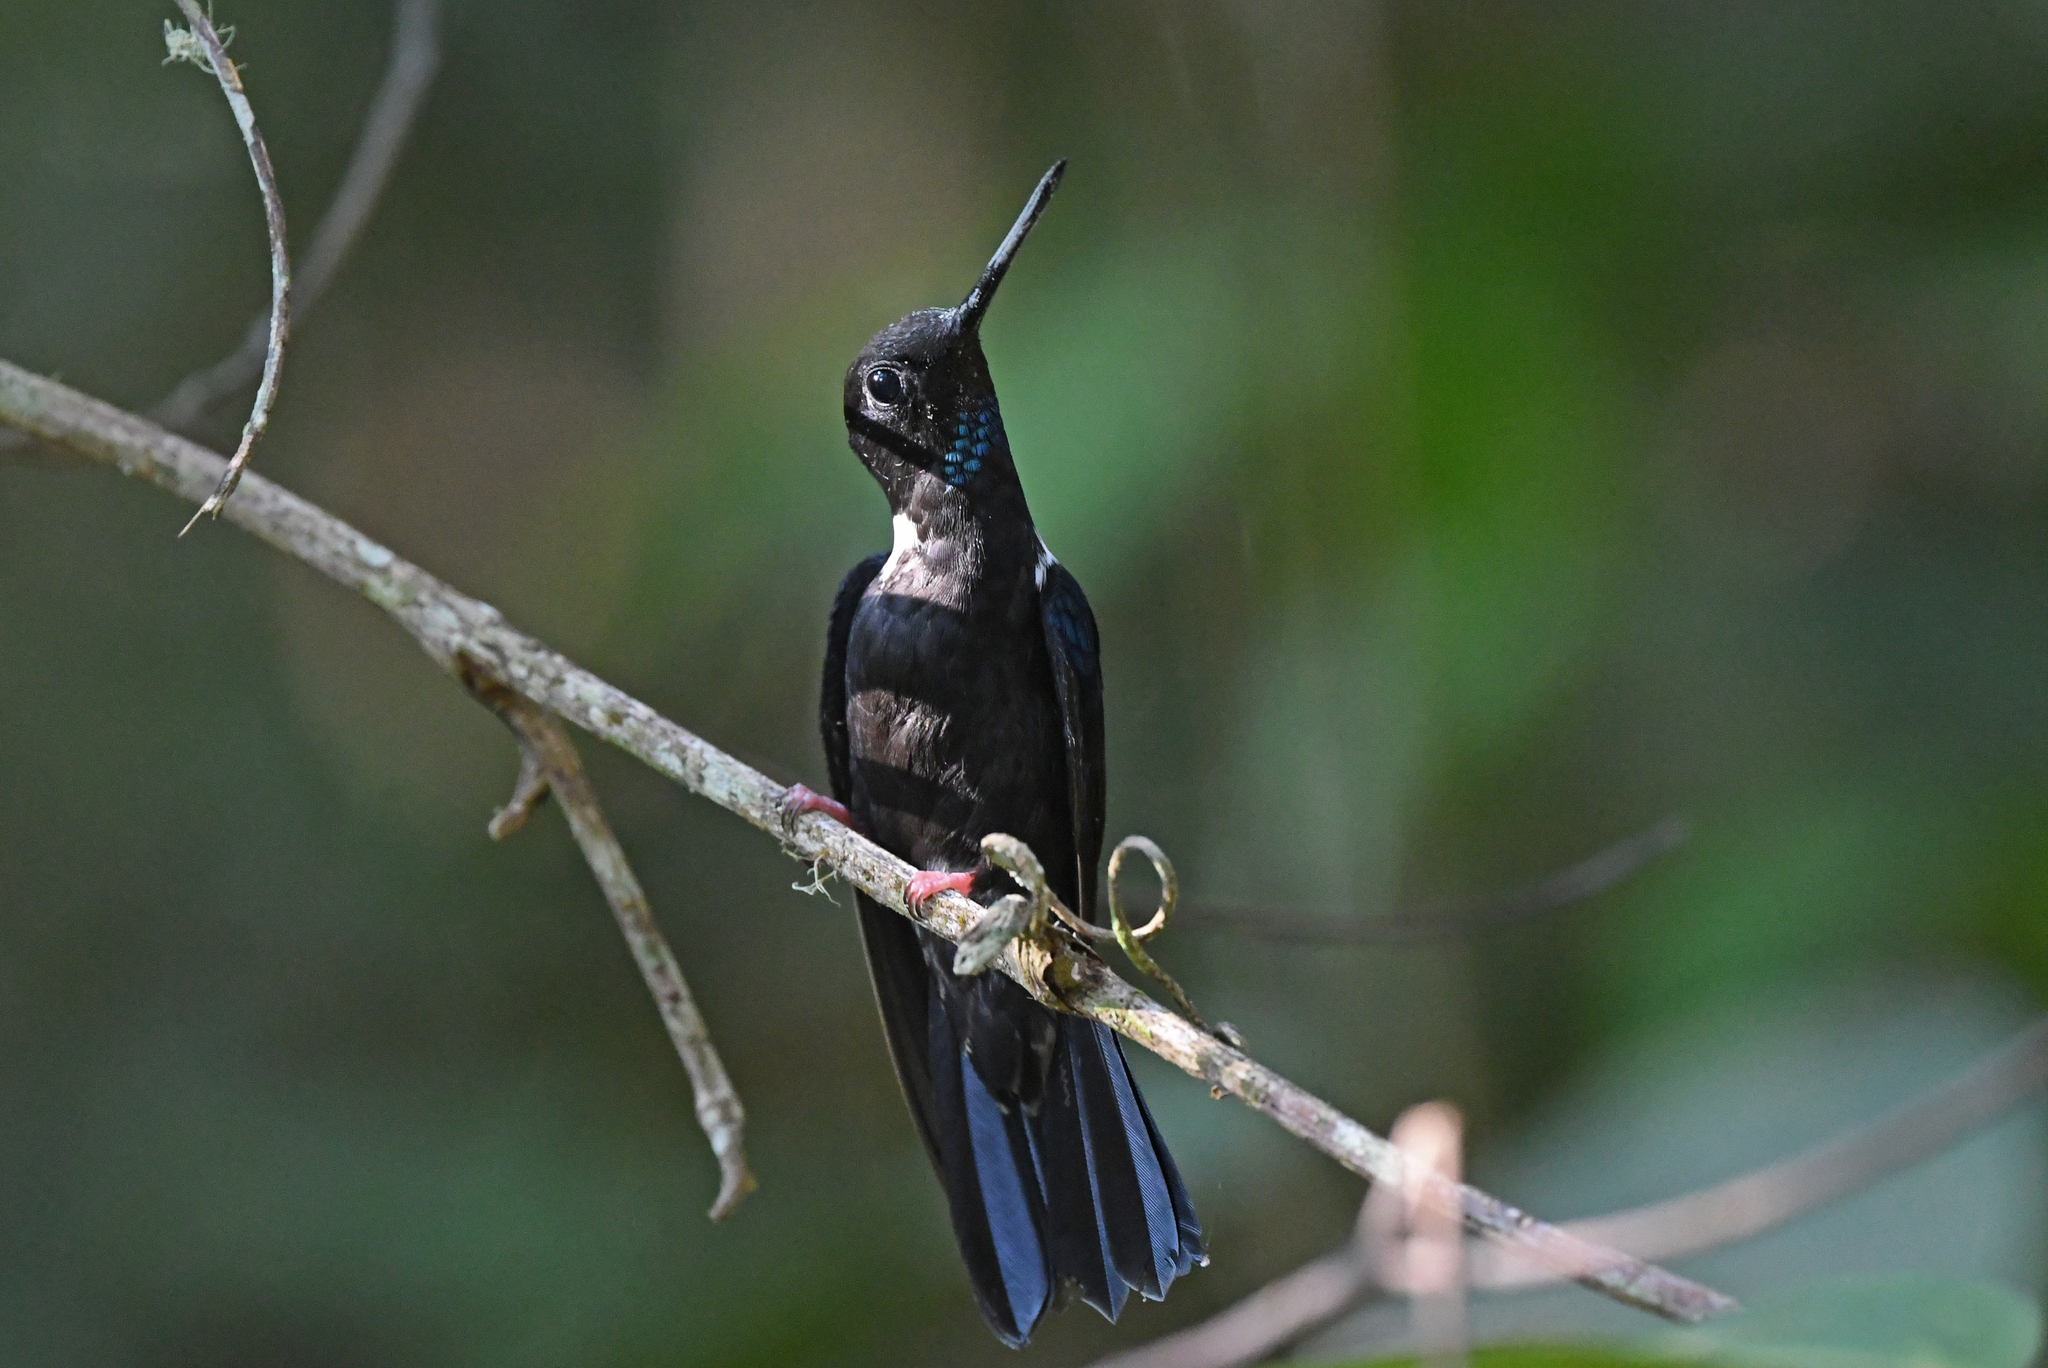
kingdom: Animalia
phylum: Chordata
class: Aves
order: Apodiformes
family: Trochilidae
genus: Coeligena
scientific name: Coeligena prunellei
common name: Black inca
